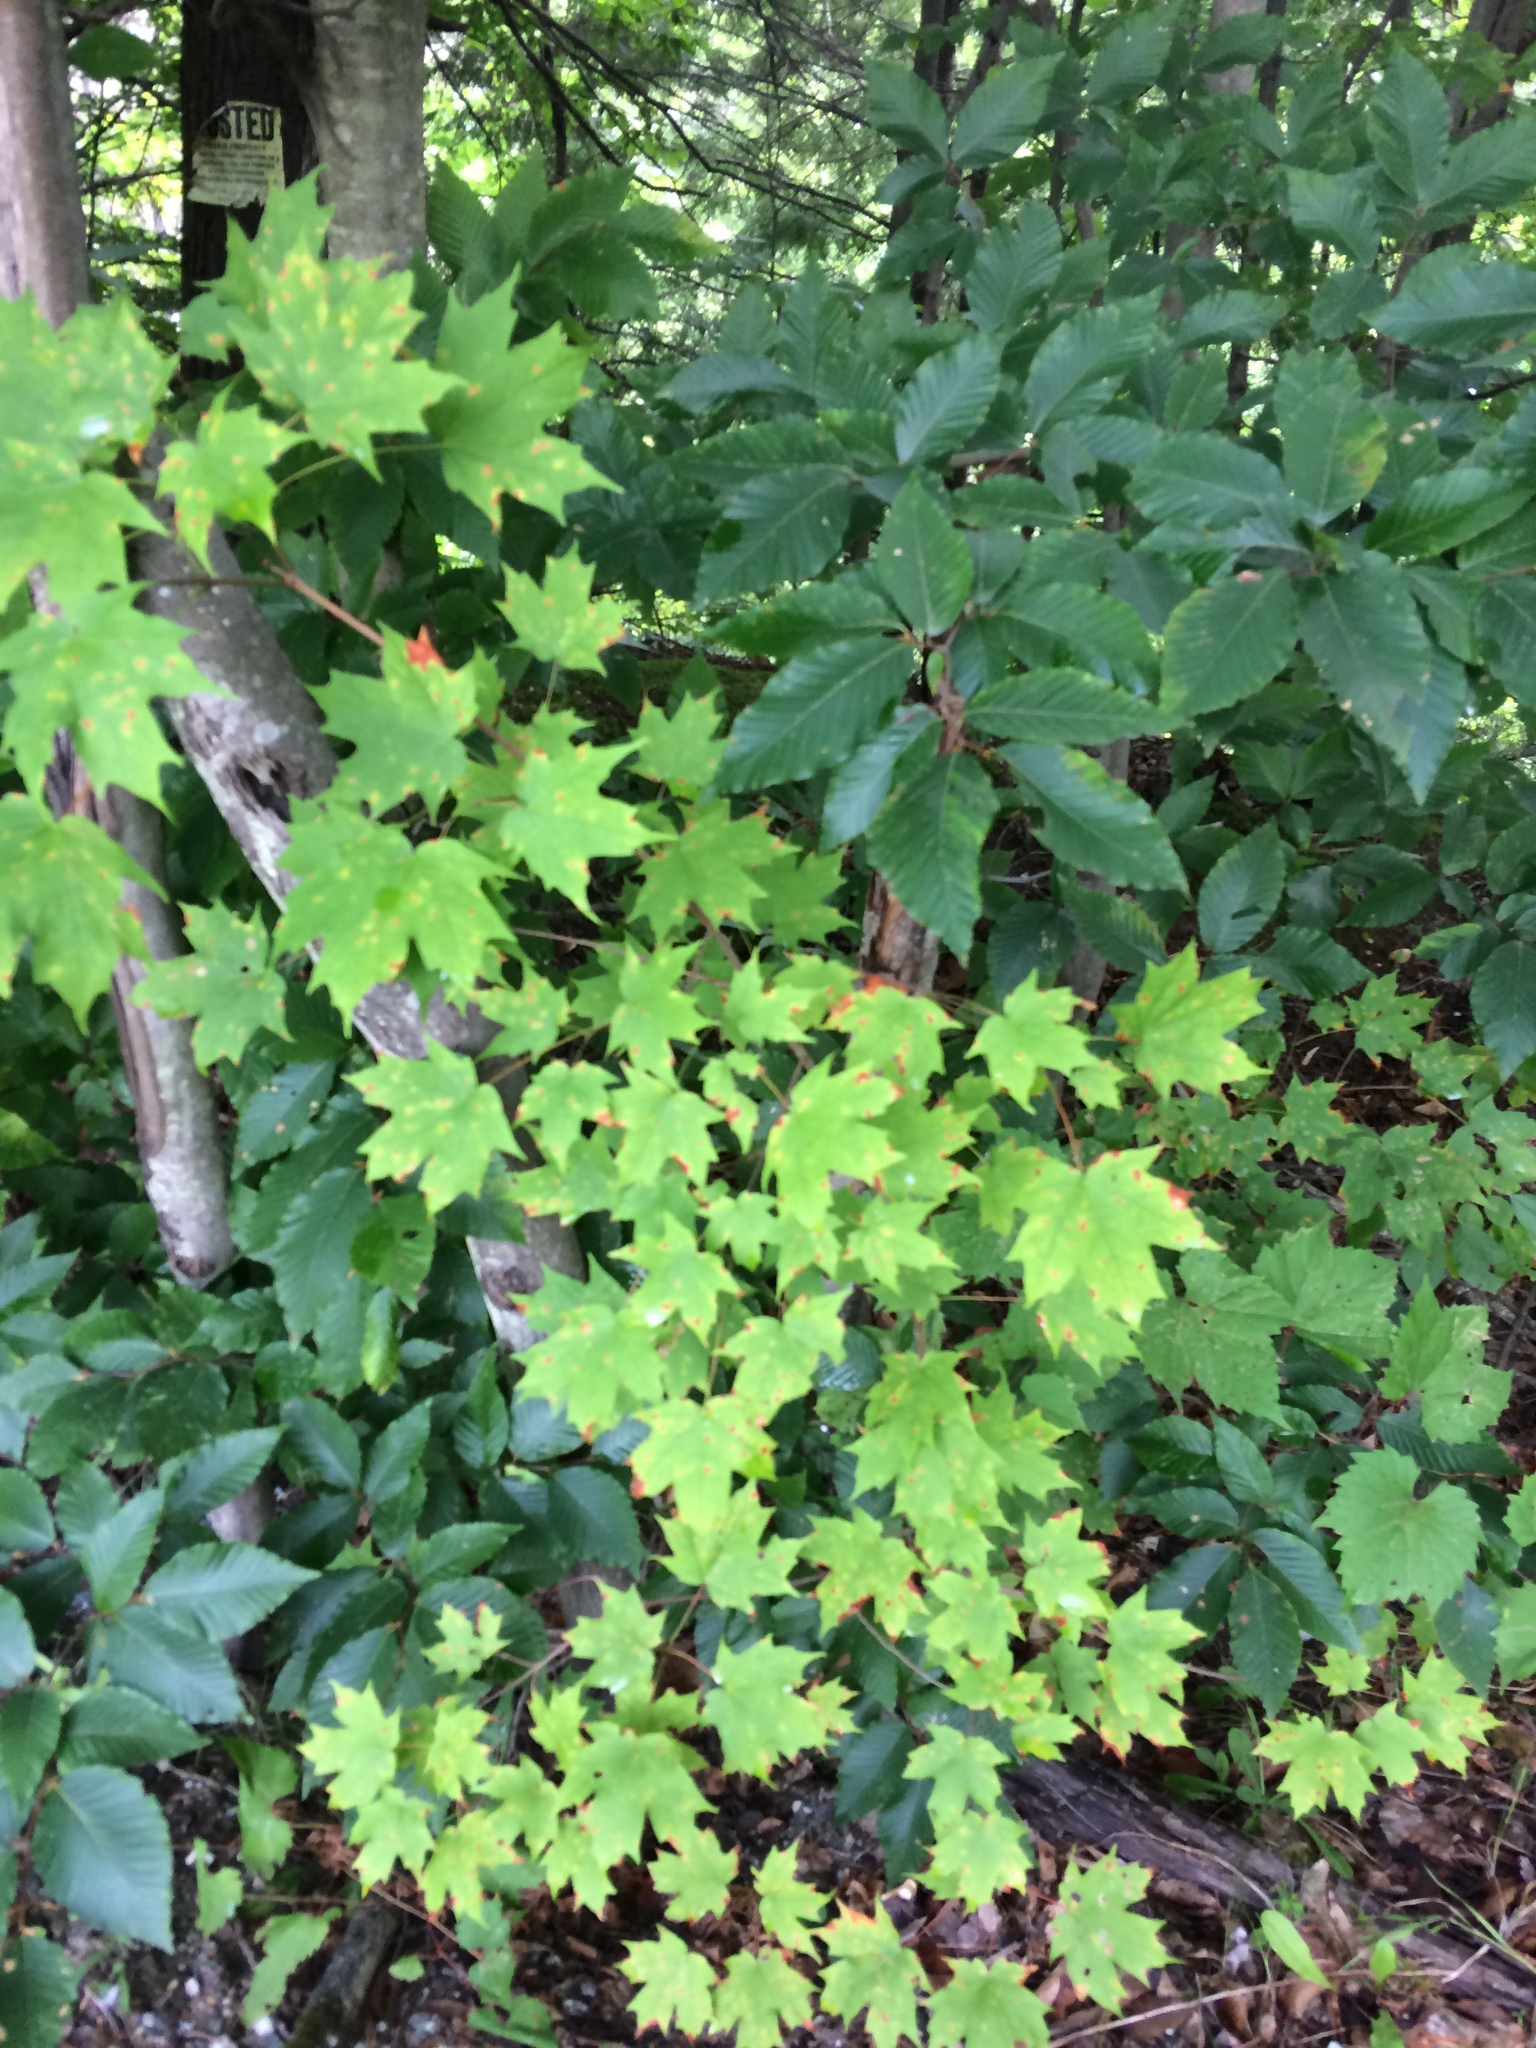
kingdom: Plantae
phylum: Tracheophyta
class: Magnoliopsida
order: Fagales
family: Fagaceae
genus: Fagus
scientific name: Fagus grandifolia
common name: American beech
